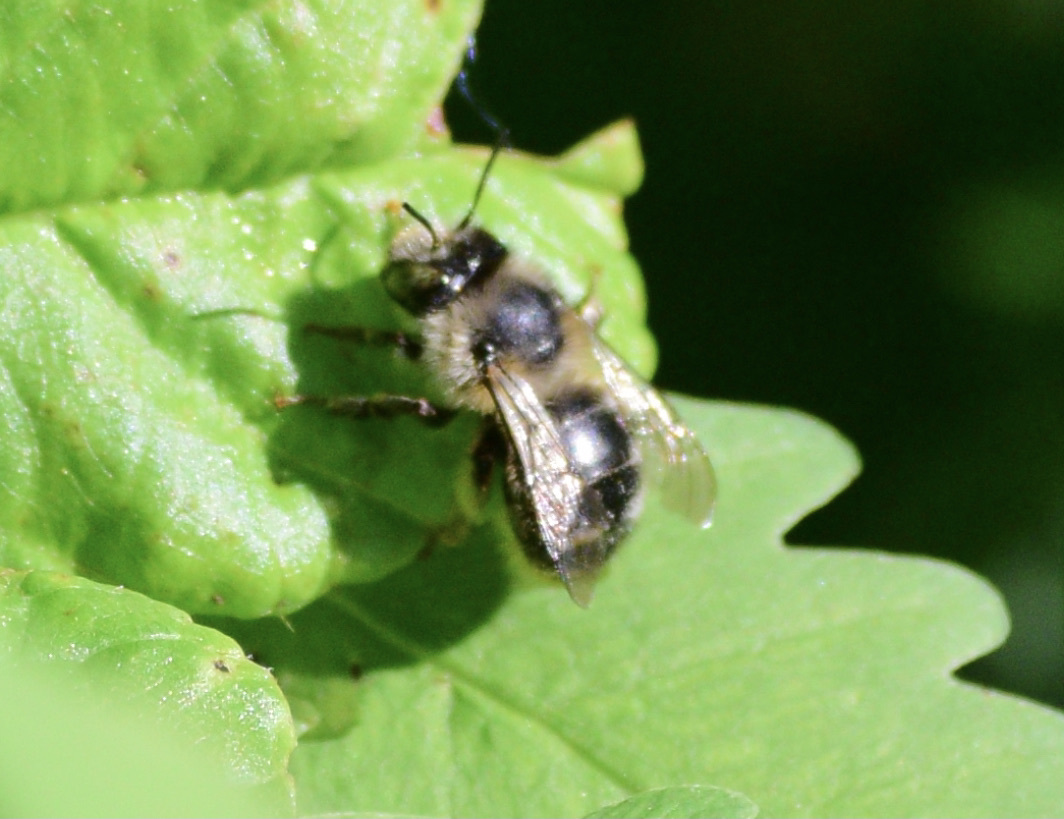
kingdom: Animalia
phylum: Arthropoda
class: Insecta
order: Hymenoptera
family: Apidae
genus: Anthophora
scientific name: Anthophora terminalis
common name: Orange-tipped wood-digger bee
